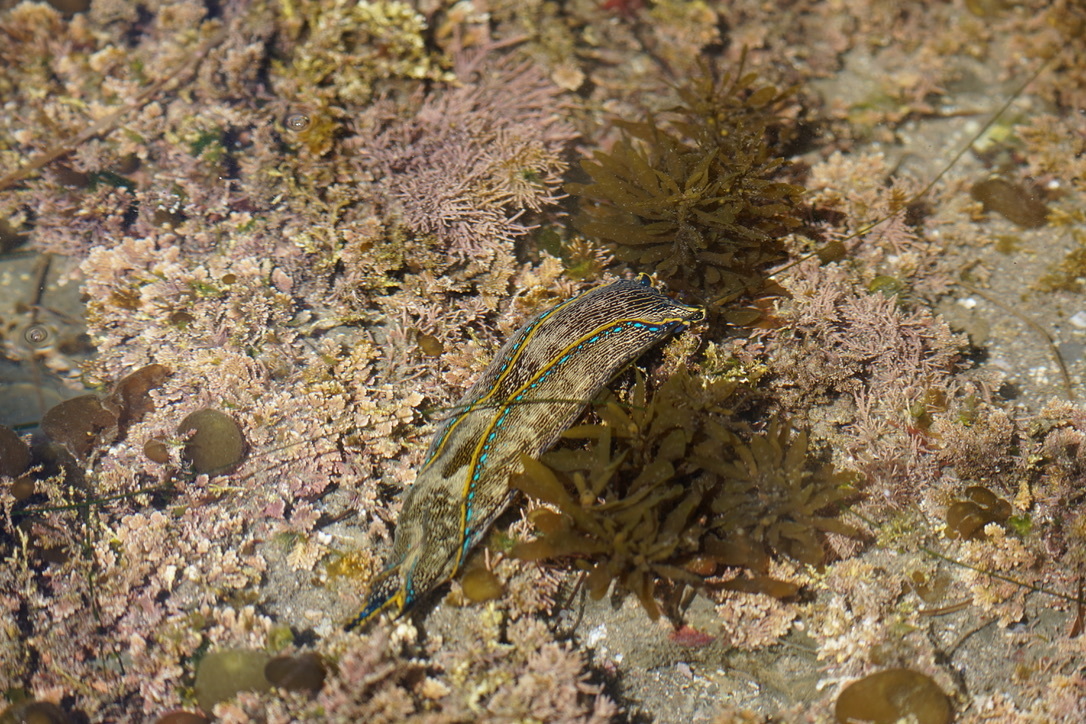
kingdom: Animalia
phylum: Mollusca
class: Gastropoda
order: Cephalaspidea
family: Aglajidae
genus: Navanax
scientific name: Navanax inermis
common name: California aglaja
